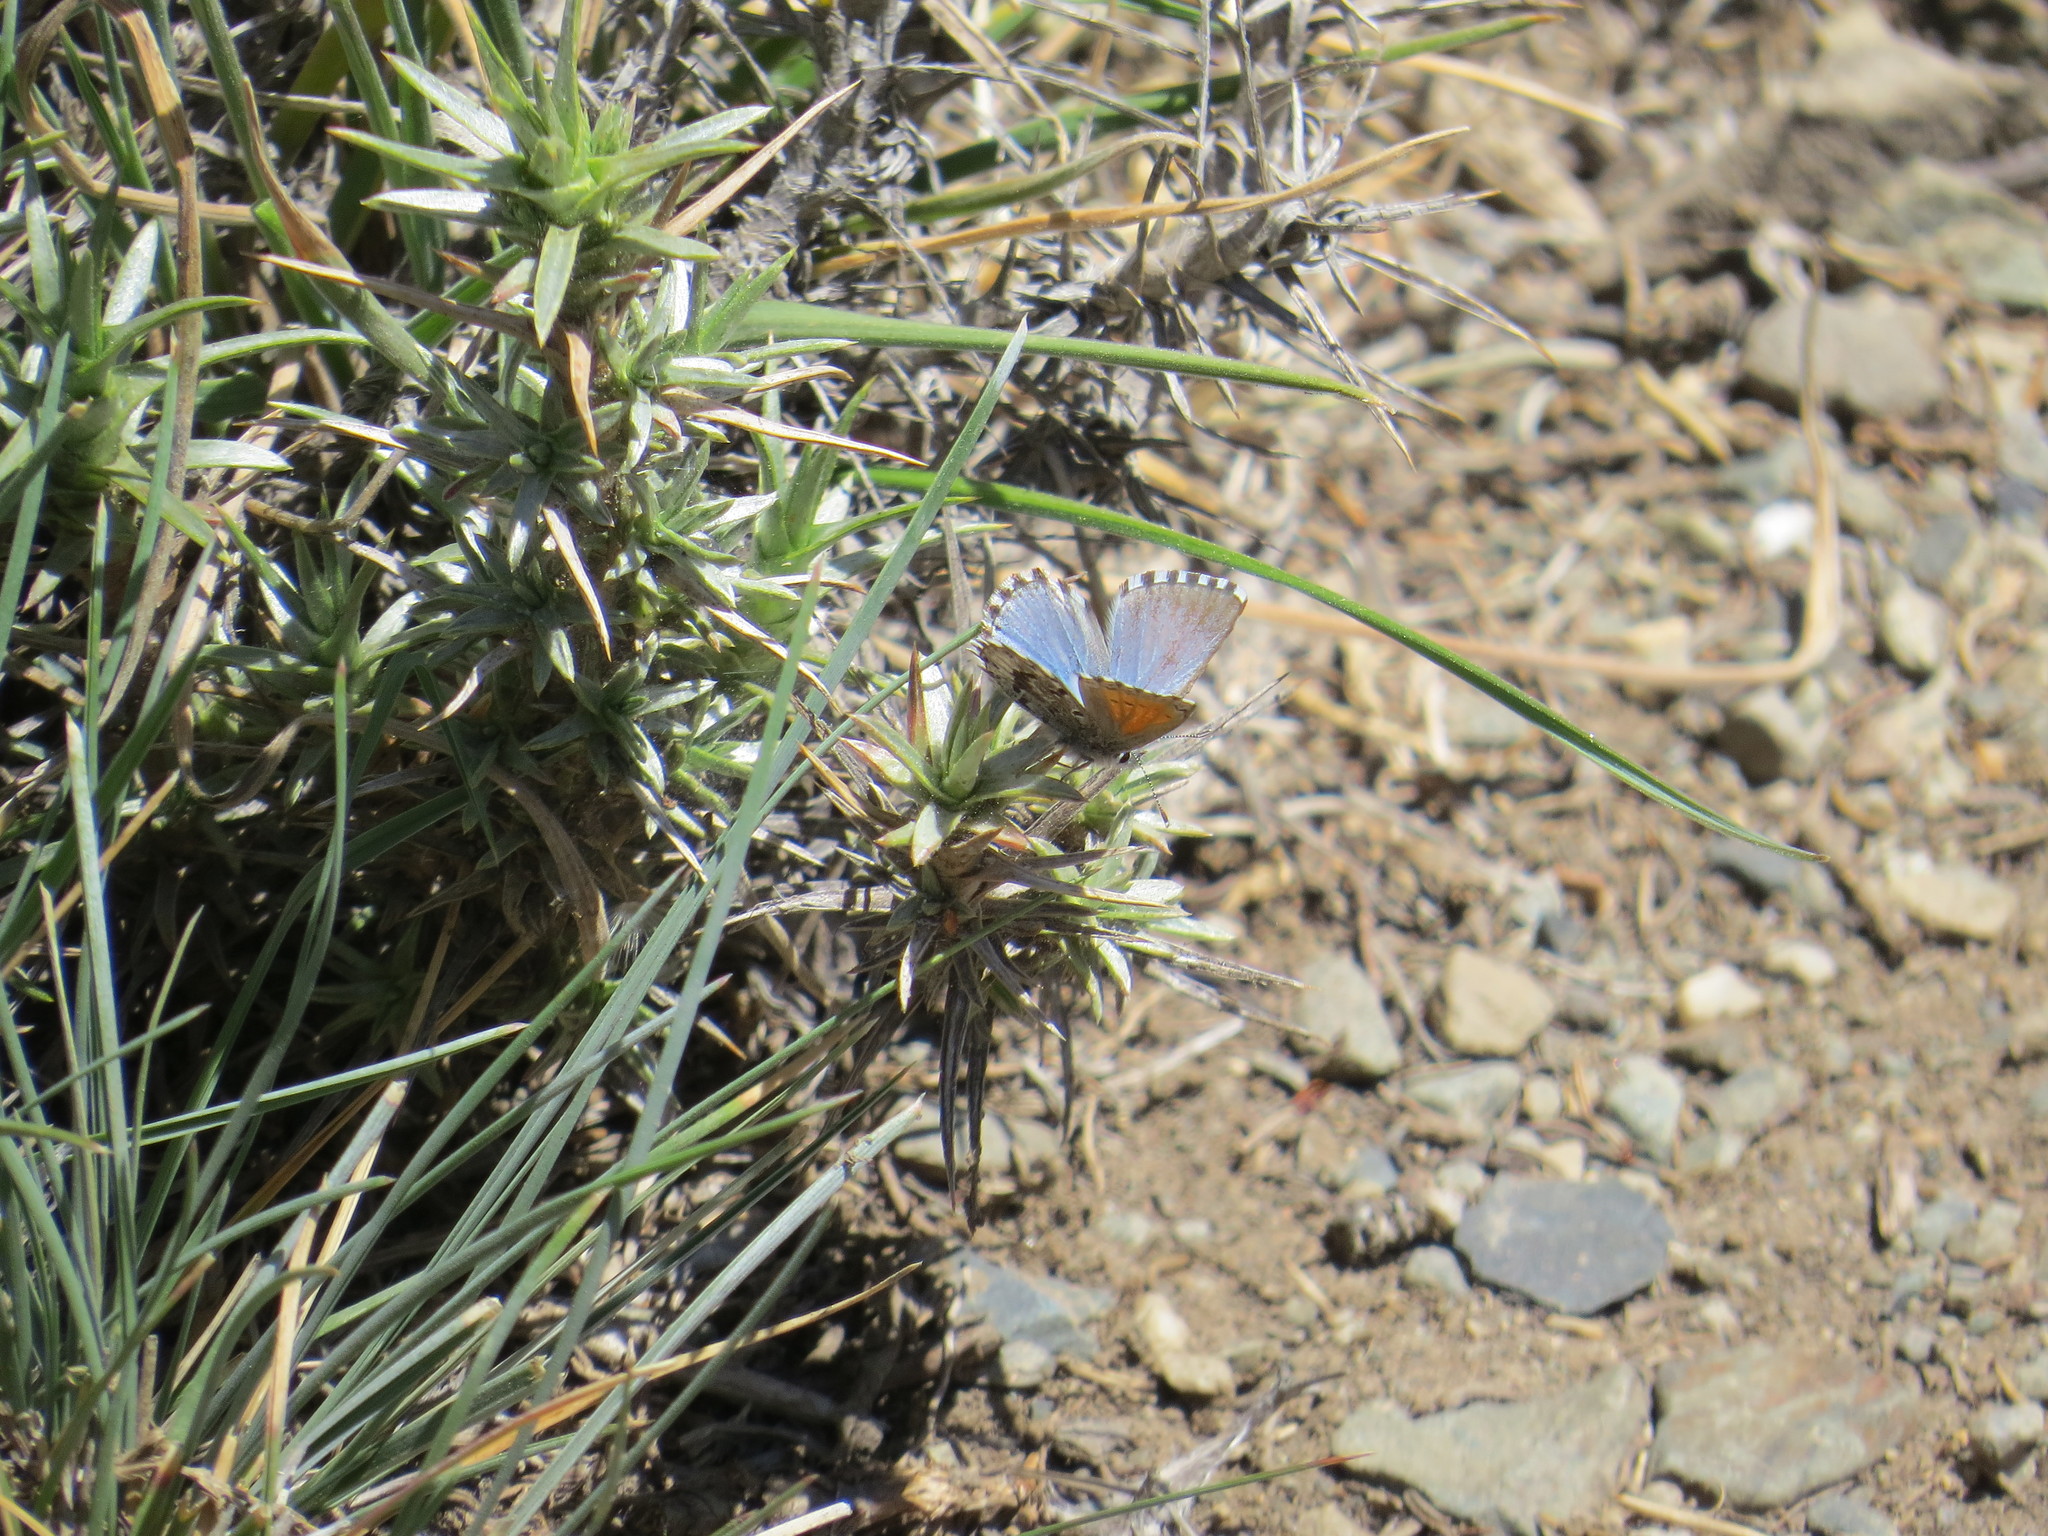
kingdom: Animalia
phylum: Arthropoda
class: Insecta
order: Lepidoptera
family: Lycaenidae
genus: Pseudolucia
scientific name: Pseudolucia patago
